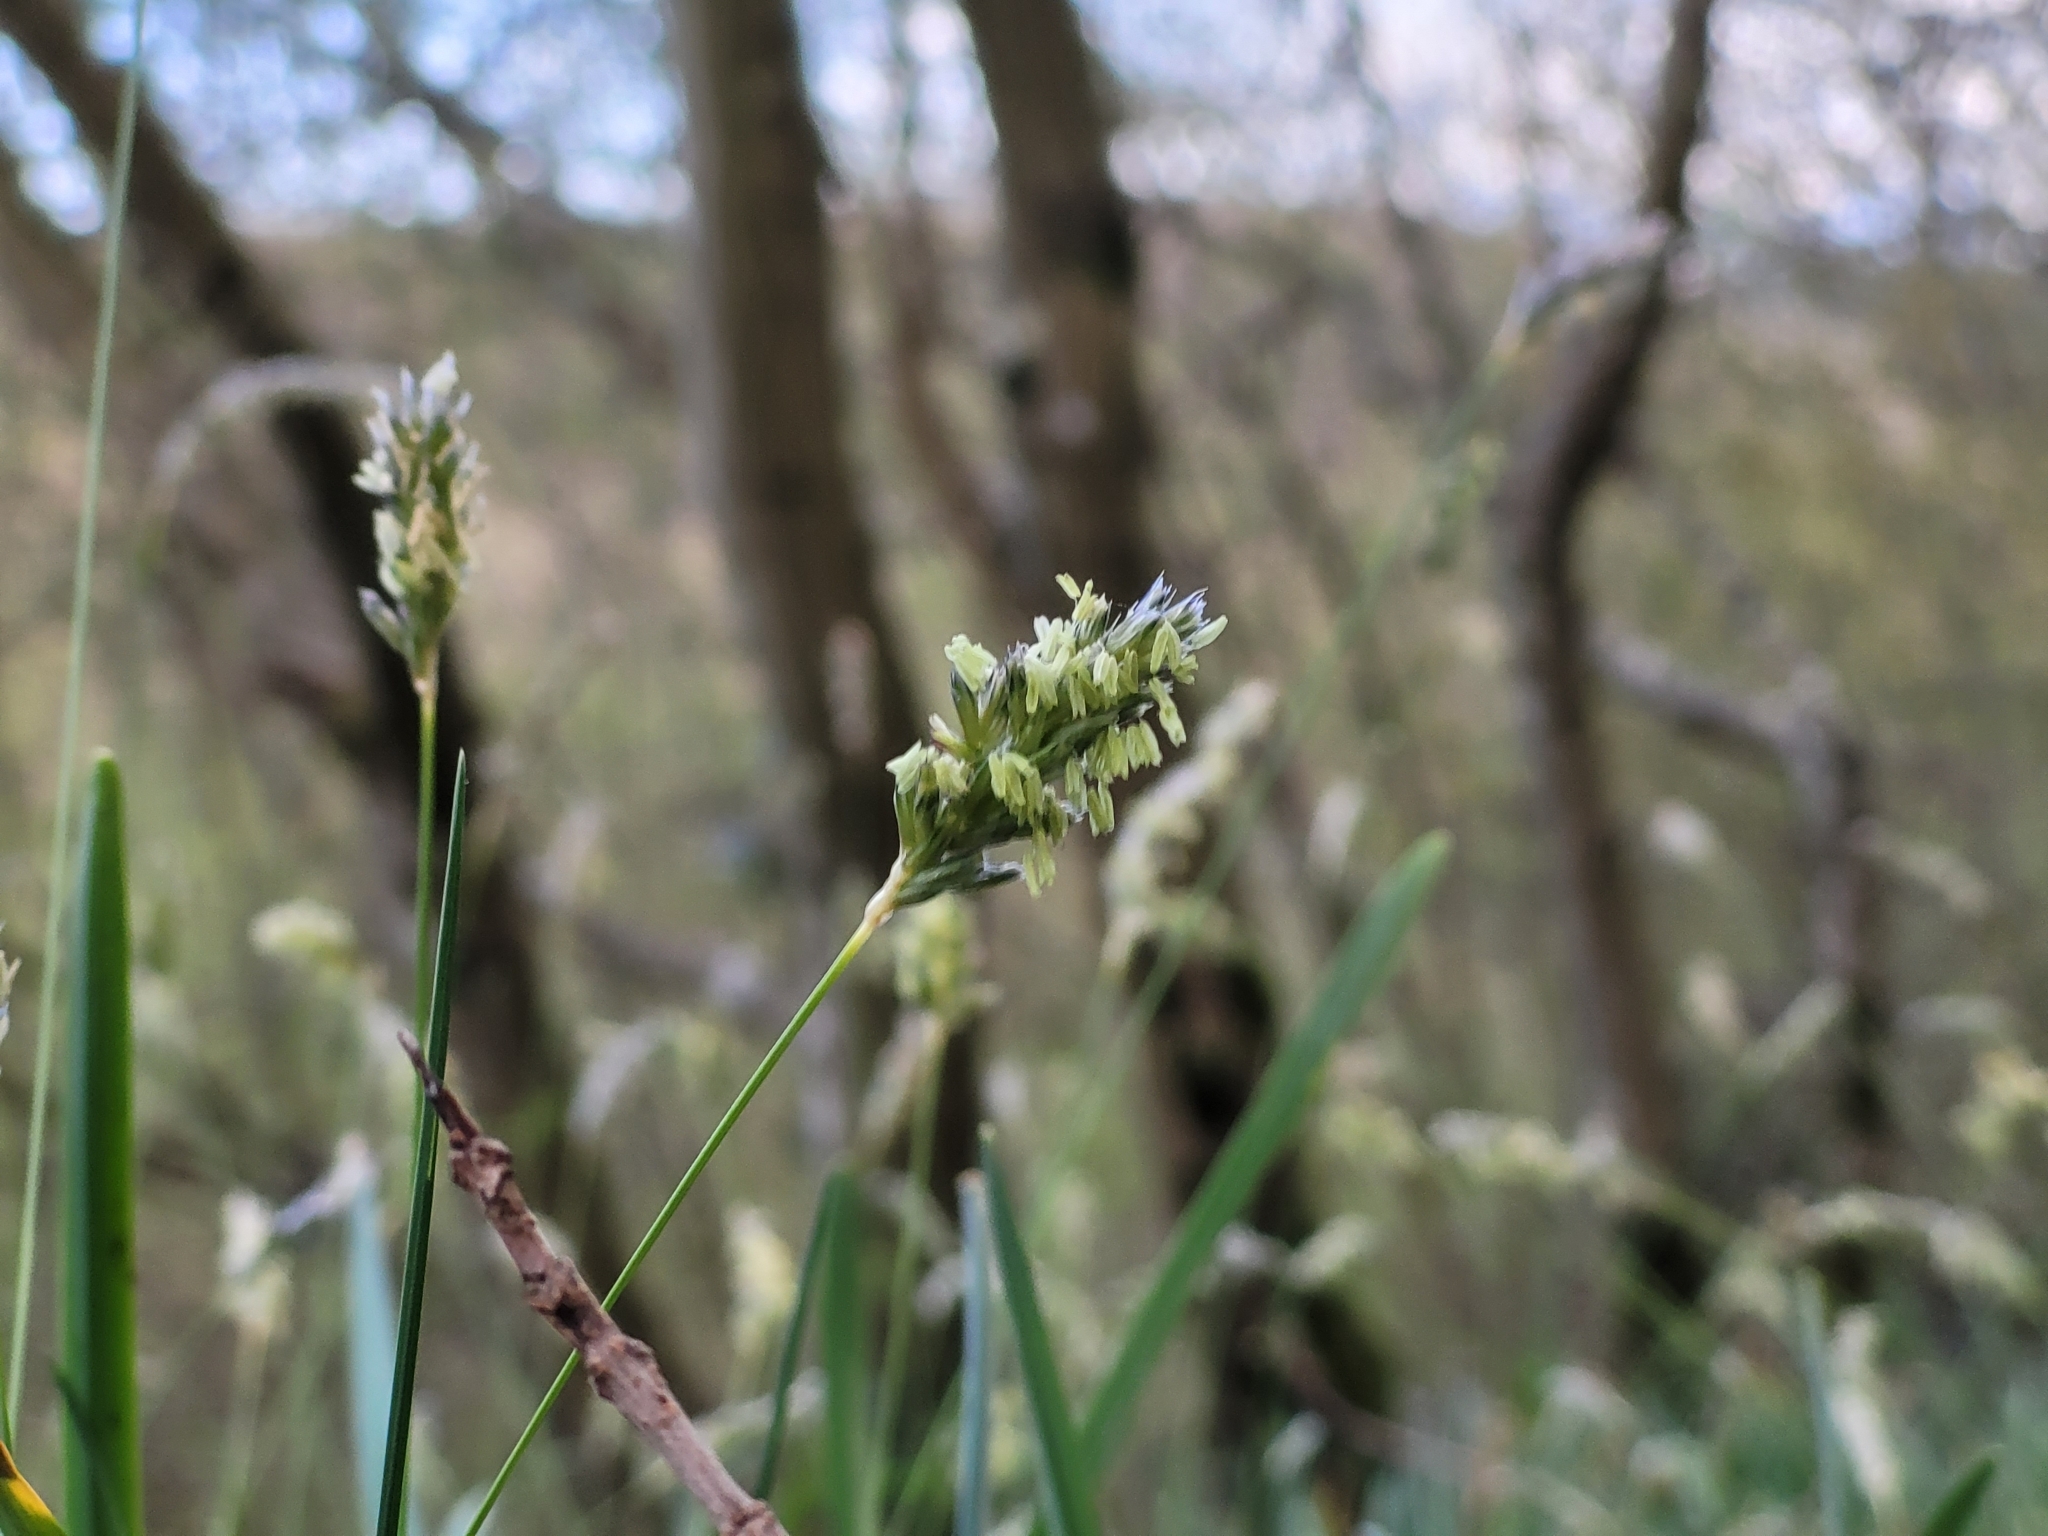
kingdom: Plantae
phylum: Tracheophyta
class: Liliopsida
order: Poales
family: Poaceae
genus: Sesleria
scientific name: Sesleria caerulea
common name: Blue moor-grass
